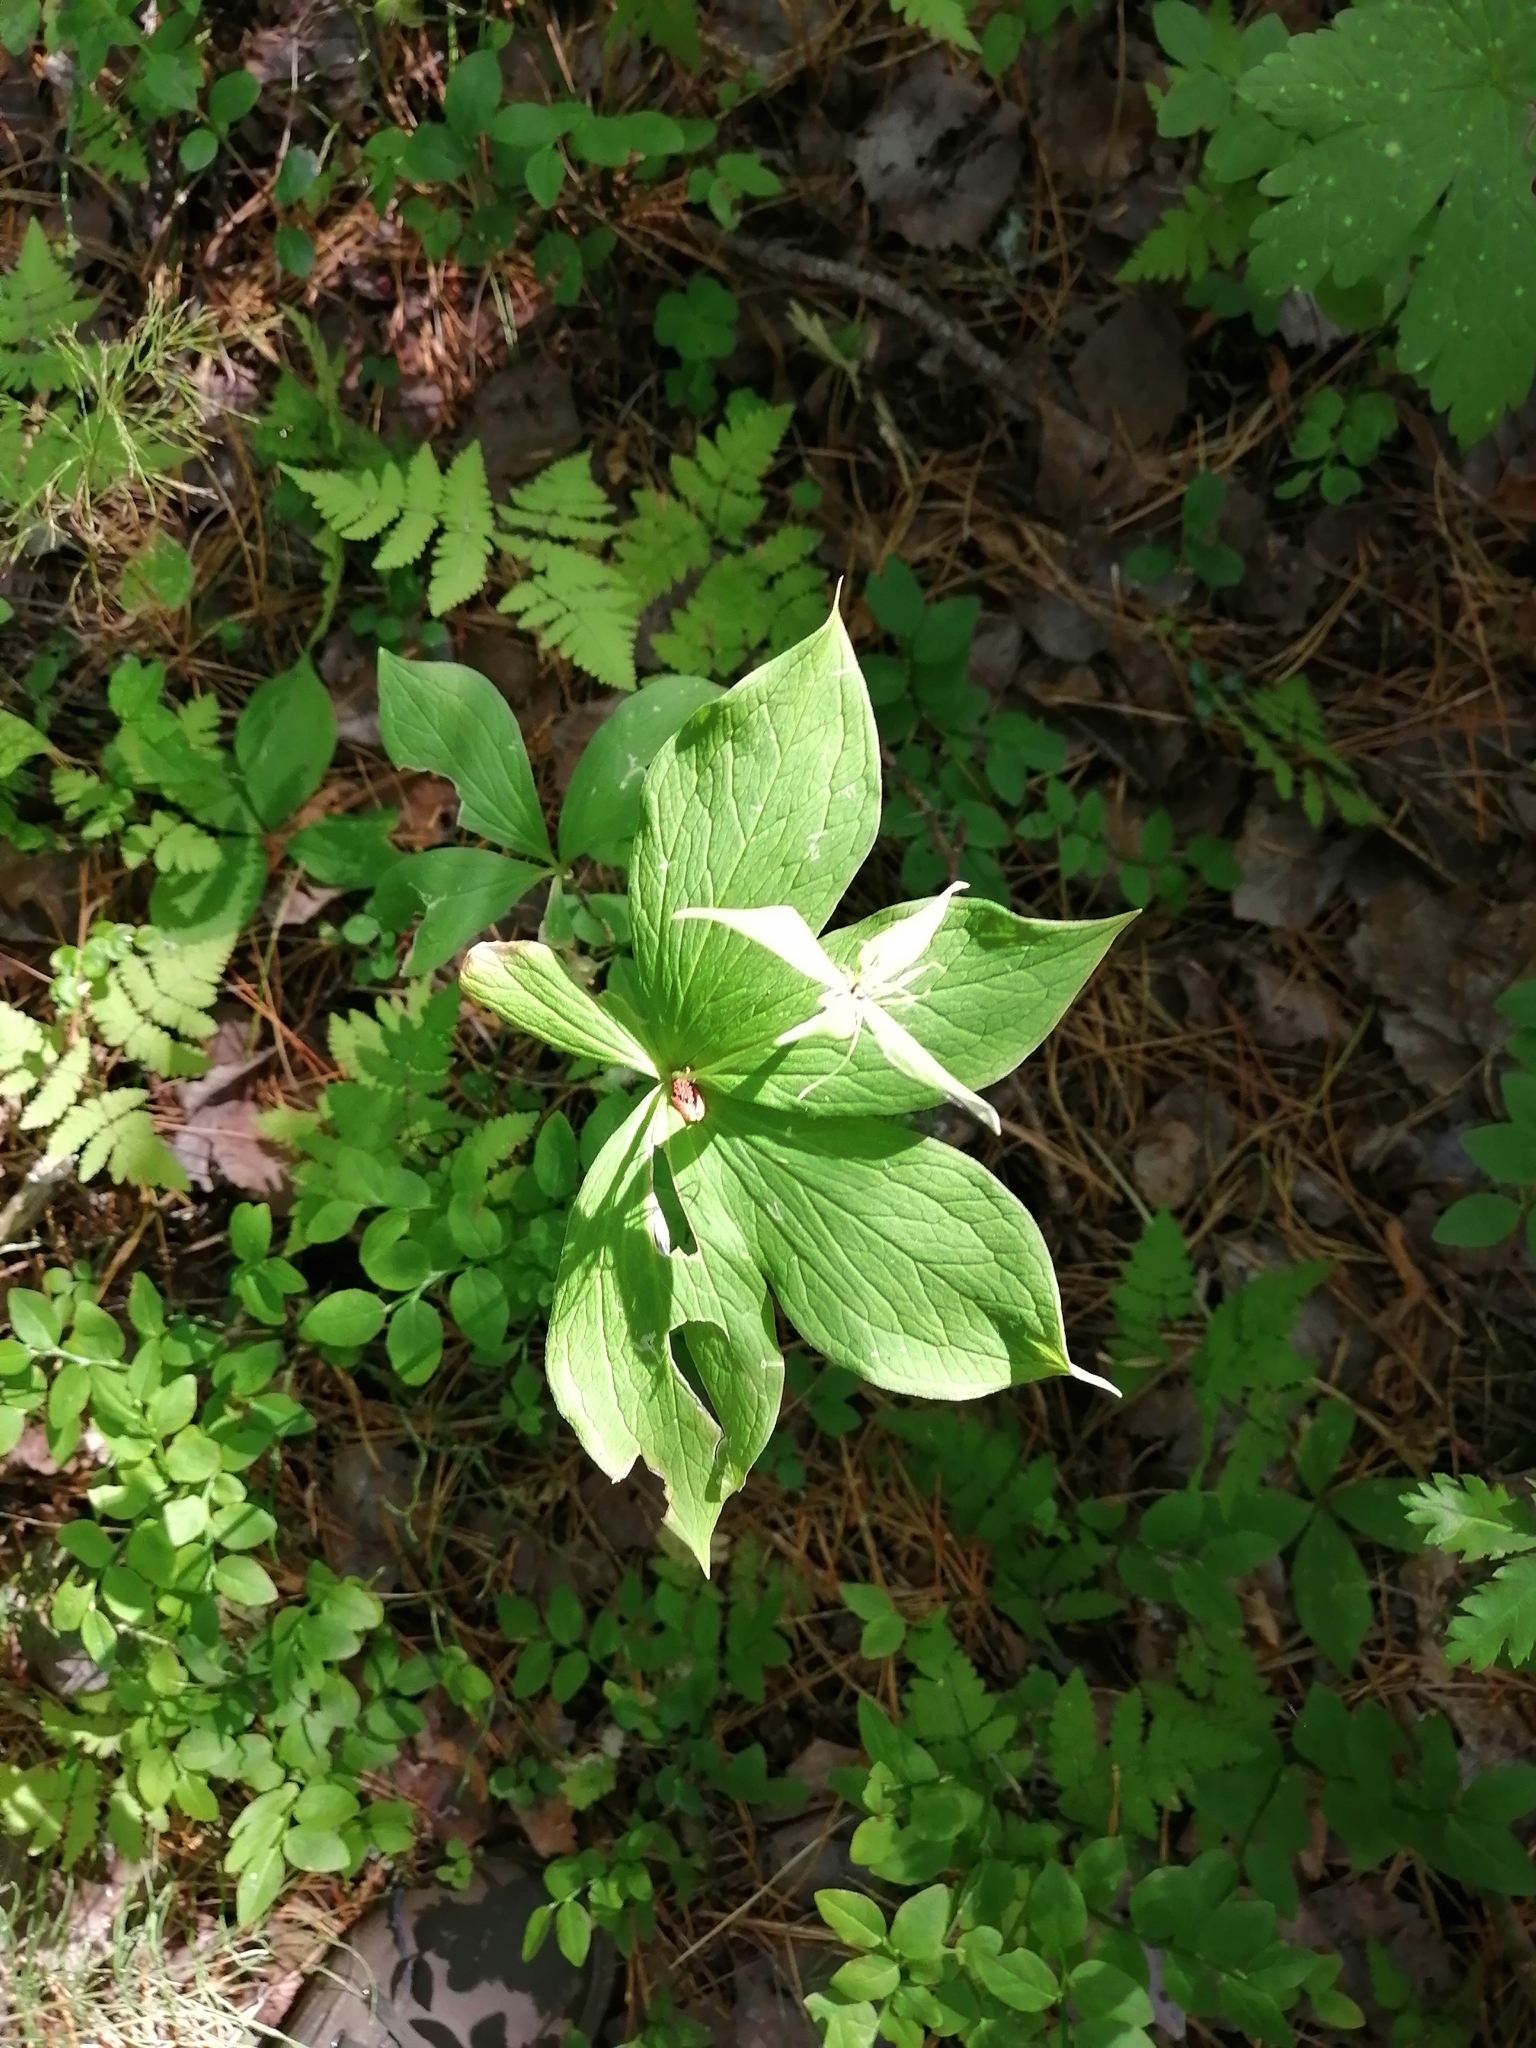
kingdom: Plantae
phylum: Tracheophyta
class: Liliopsida
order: Liliales
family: Melanthiaceae
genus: Paris
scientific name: Paris quadrifolia
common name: Herb-paris
